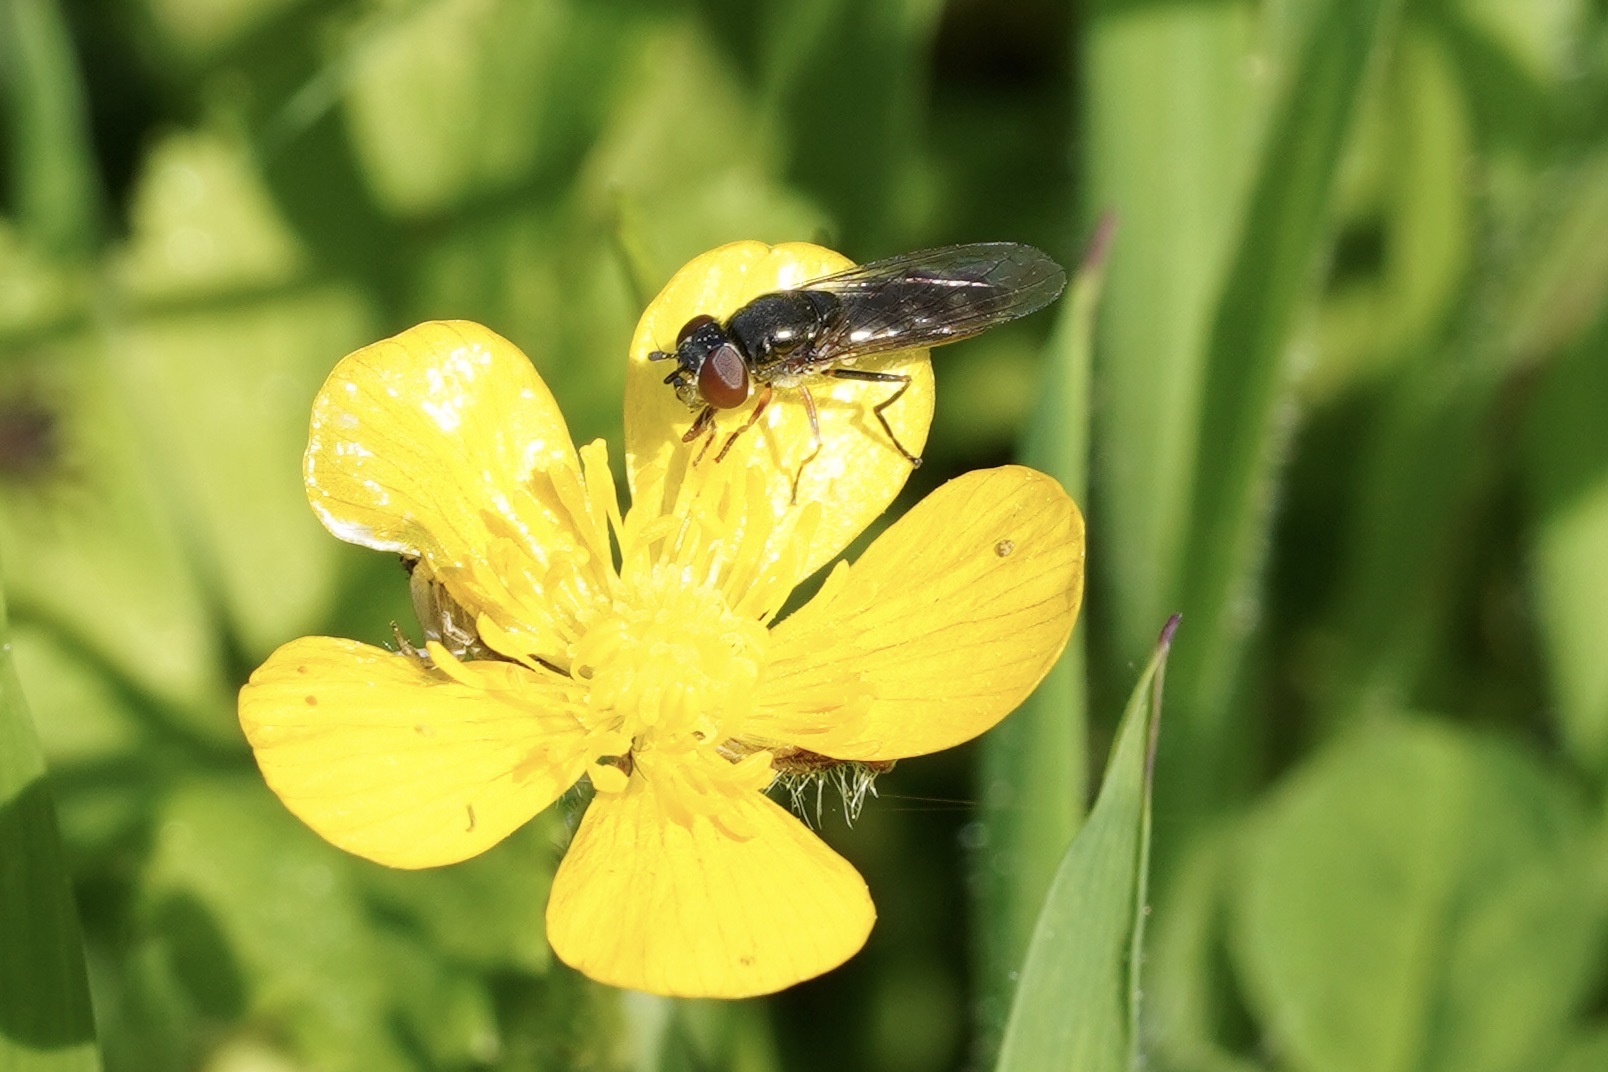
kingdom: Animalia
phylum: Arthropoda
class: Insecta
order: Diptera
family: Syrphidae
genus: Platycheirus
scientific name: Platycheirus albimanus
